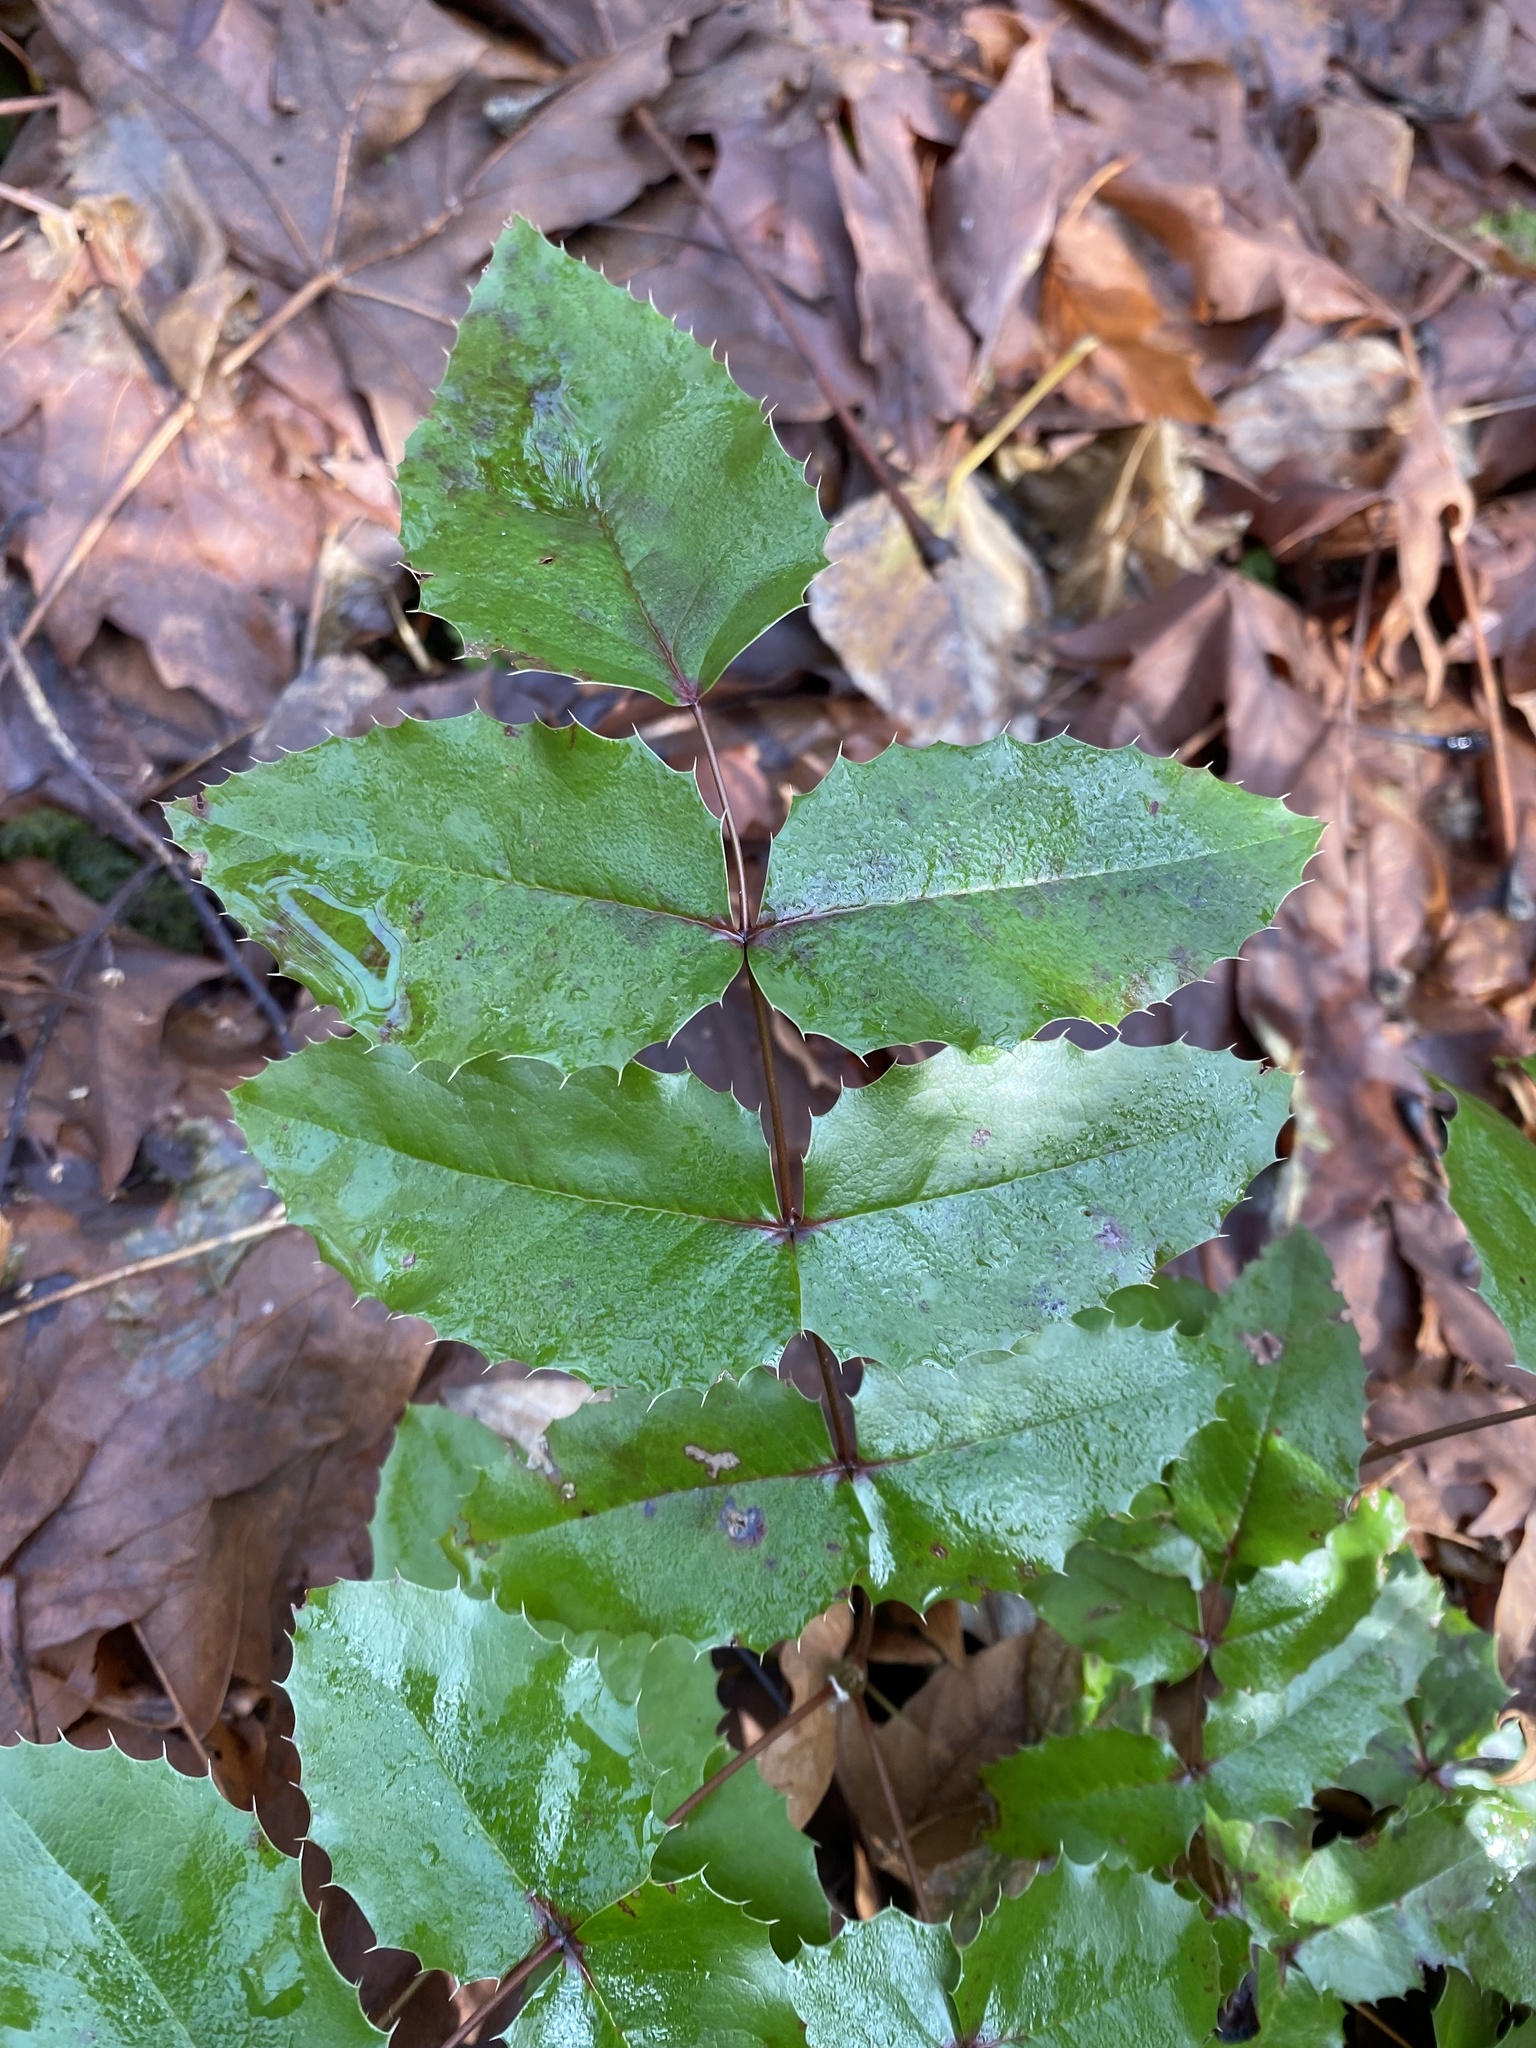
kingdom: Plantae
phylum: Tracheophyta
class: Magnoliopsida
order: Ranunculales
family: Berberidaceae
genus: Mahonia
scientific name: Mahonia aquifolium
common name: Oregon-grape
